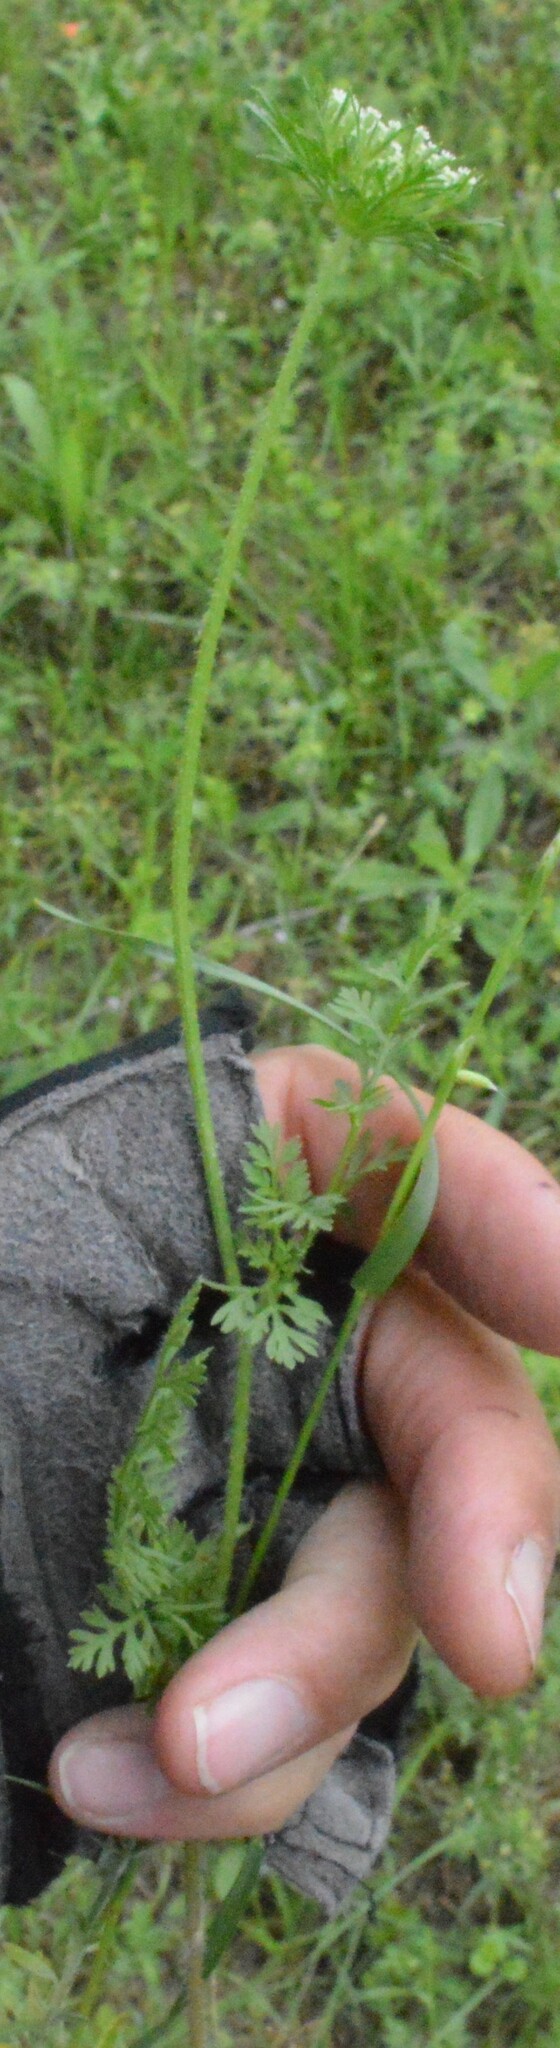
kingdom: Plantae
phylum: Tracheophyta
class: Magnoliopsida
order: Apiales
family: Apiaceae
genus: Daucus
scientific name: Daucus pusillus
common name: Southwest wild carrot
